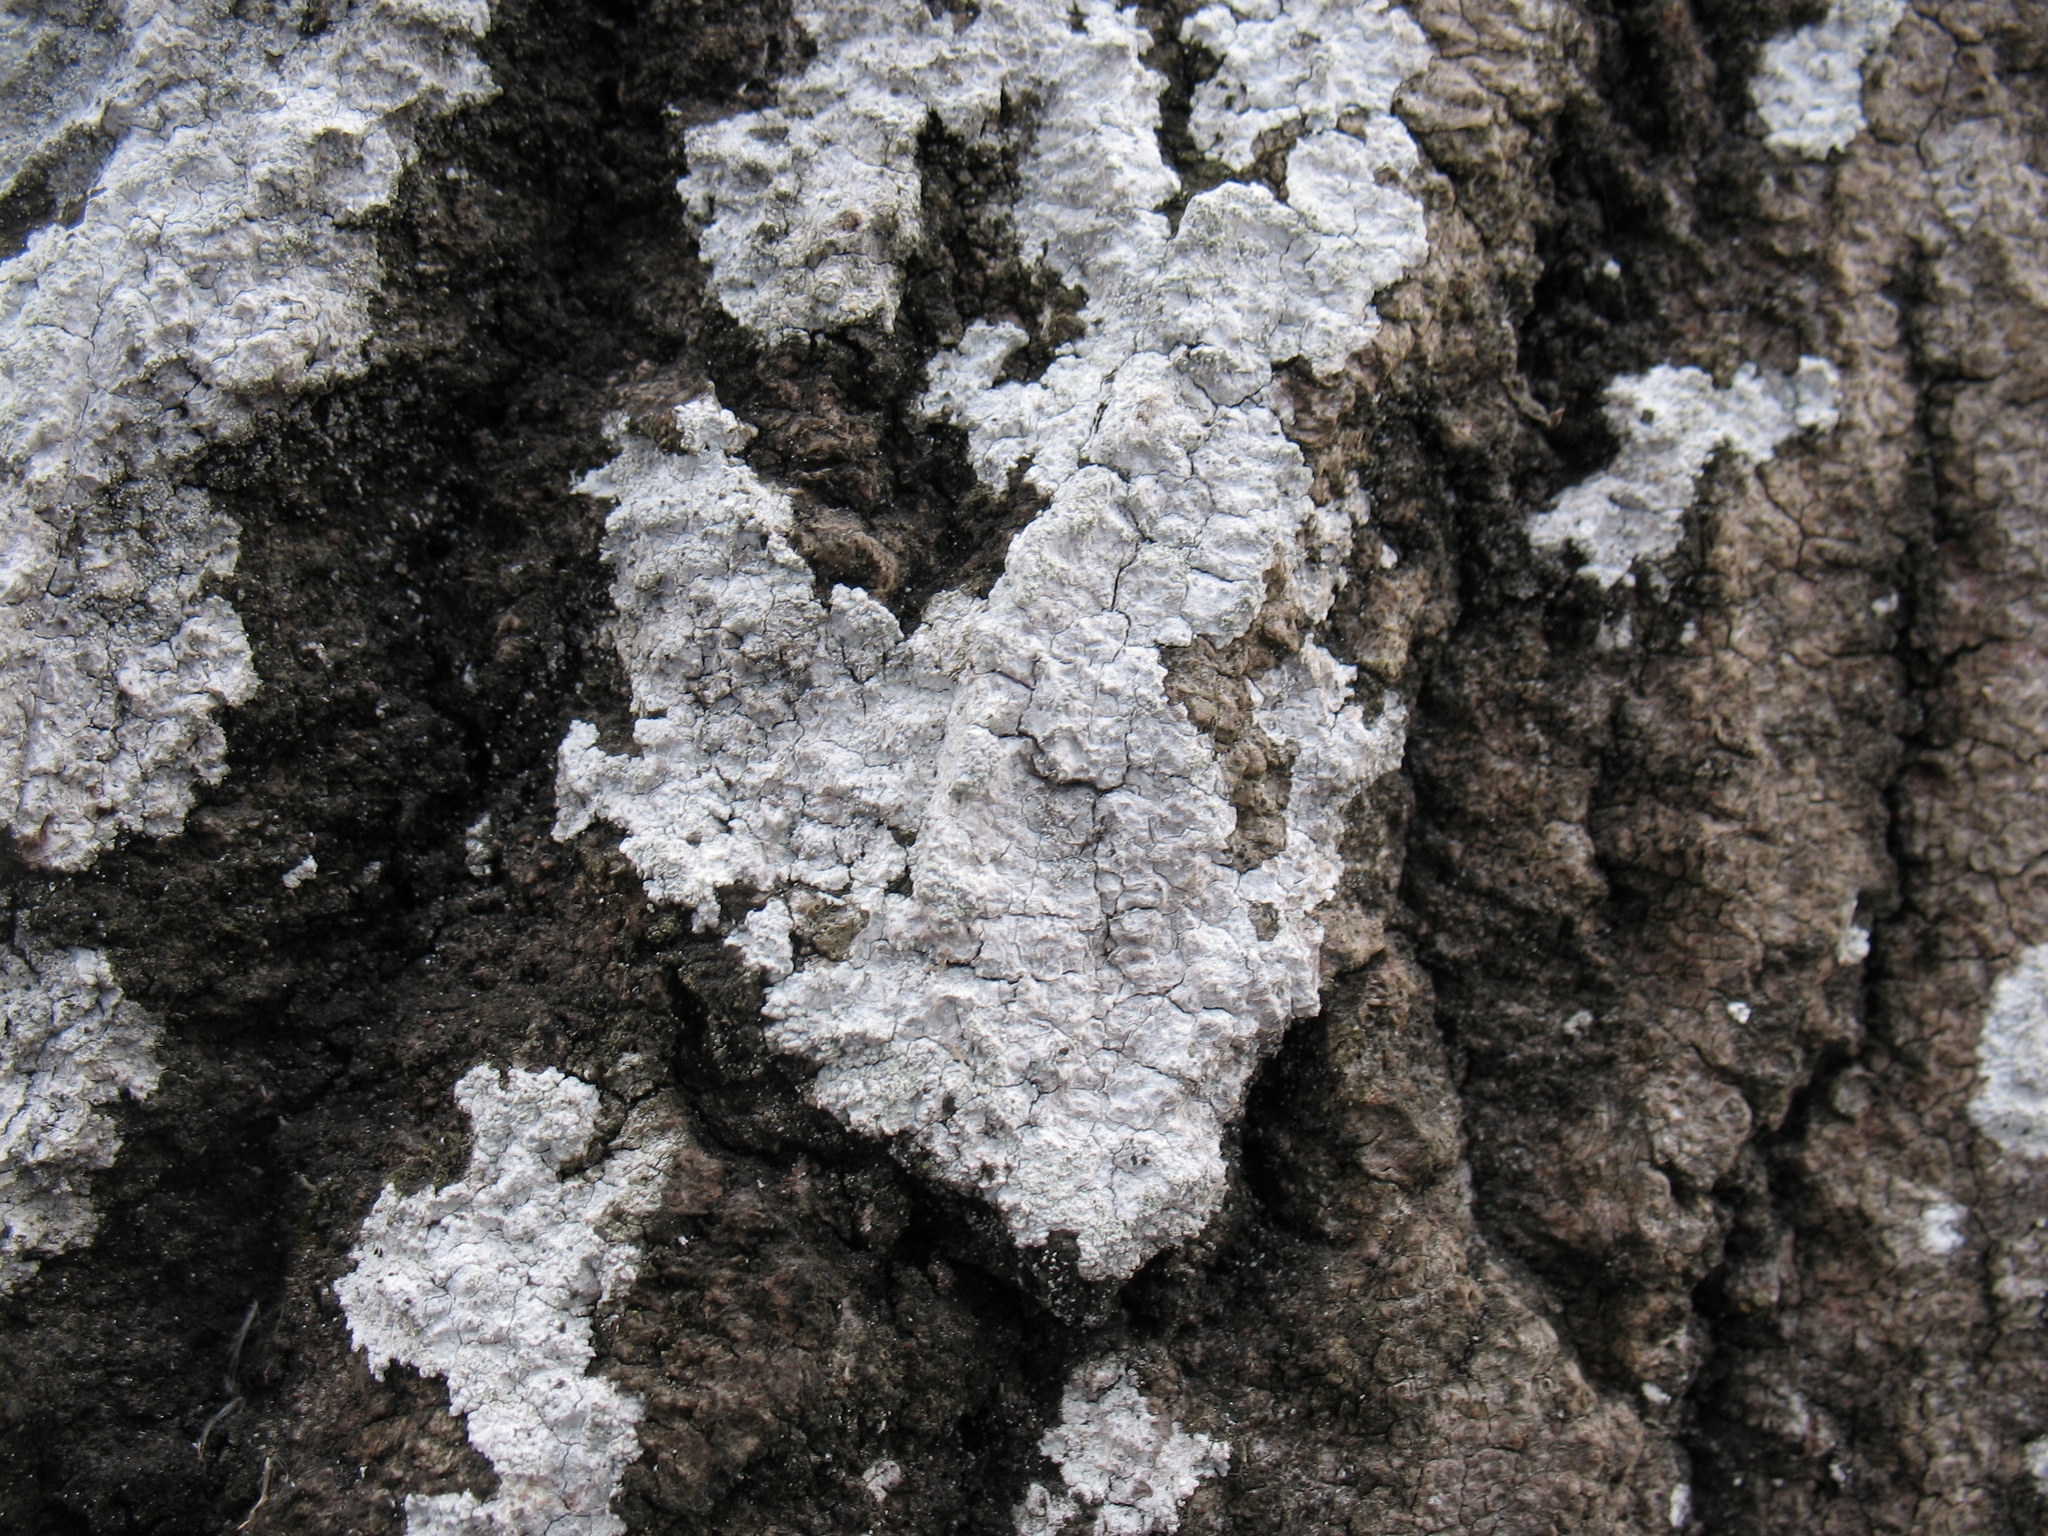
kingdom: Fungi
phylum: Ascomycota
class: Lecanoromycetes
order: Ostropales
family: Phlyctidaceae
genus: Phlyctis
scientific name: Phlyctis argena
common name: Whitewash lichen
